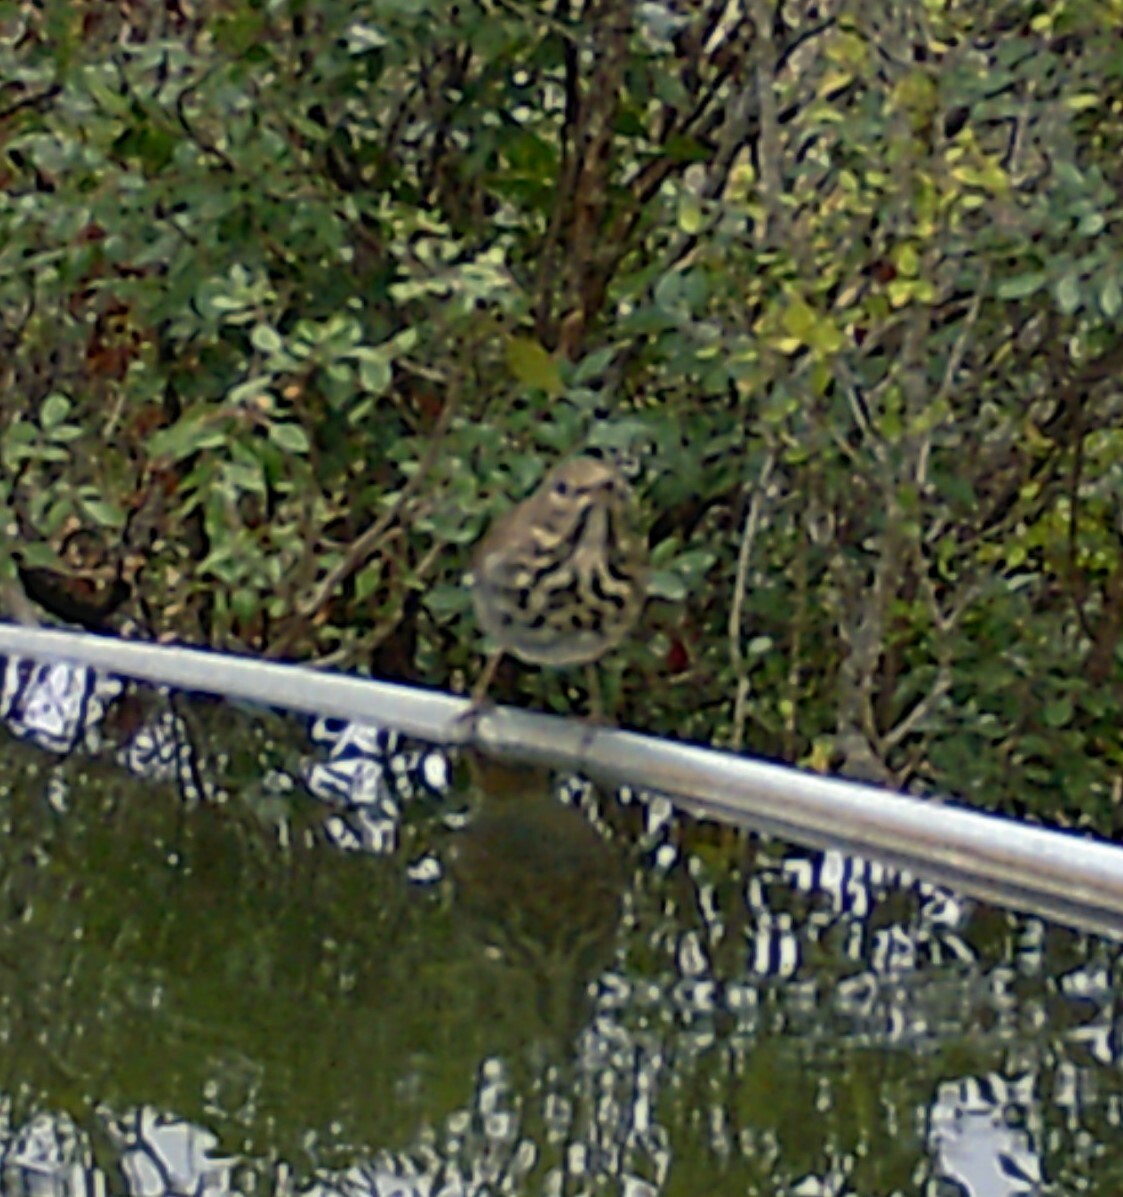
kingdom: Animalia
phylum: Chordata
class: Aves
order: Passeriformes
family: Turdidae
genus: Catharus
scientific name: Catharus guttatus
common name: Hermit thrush
